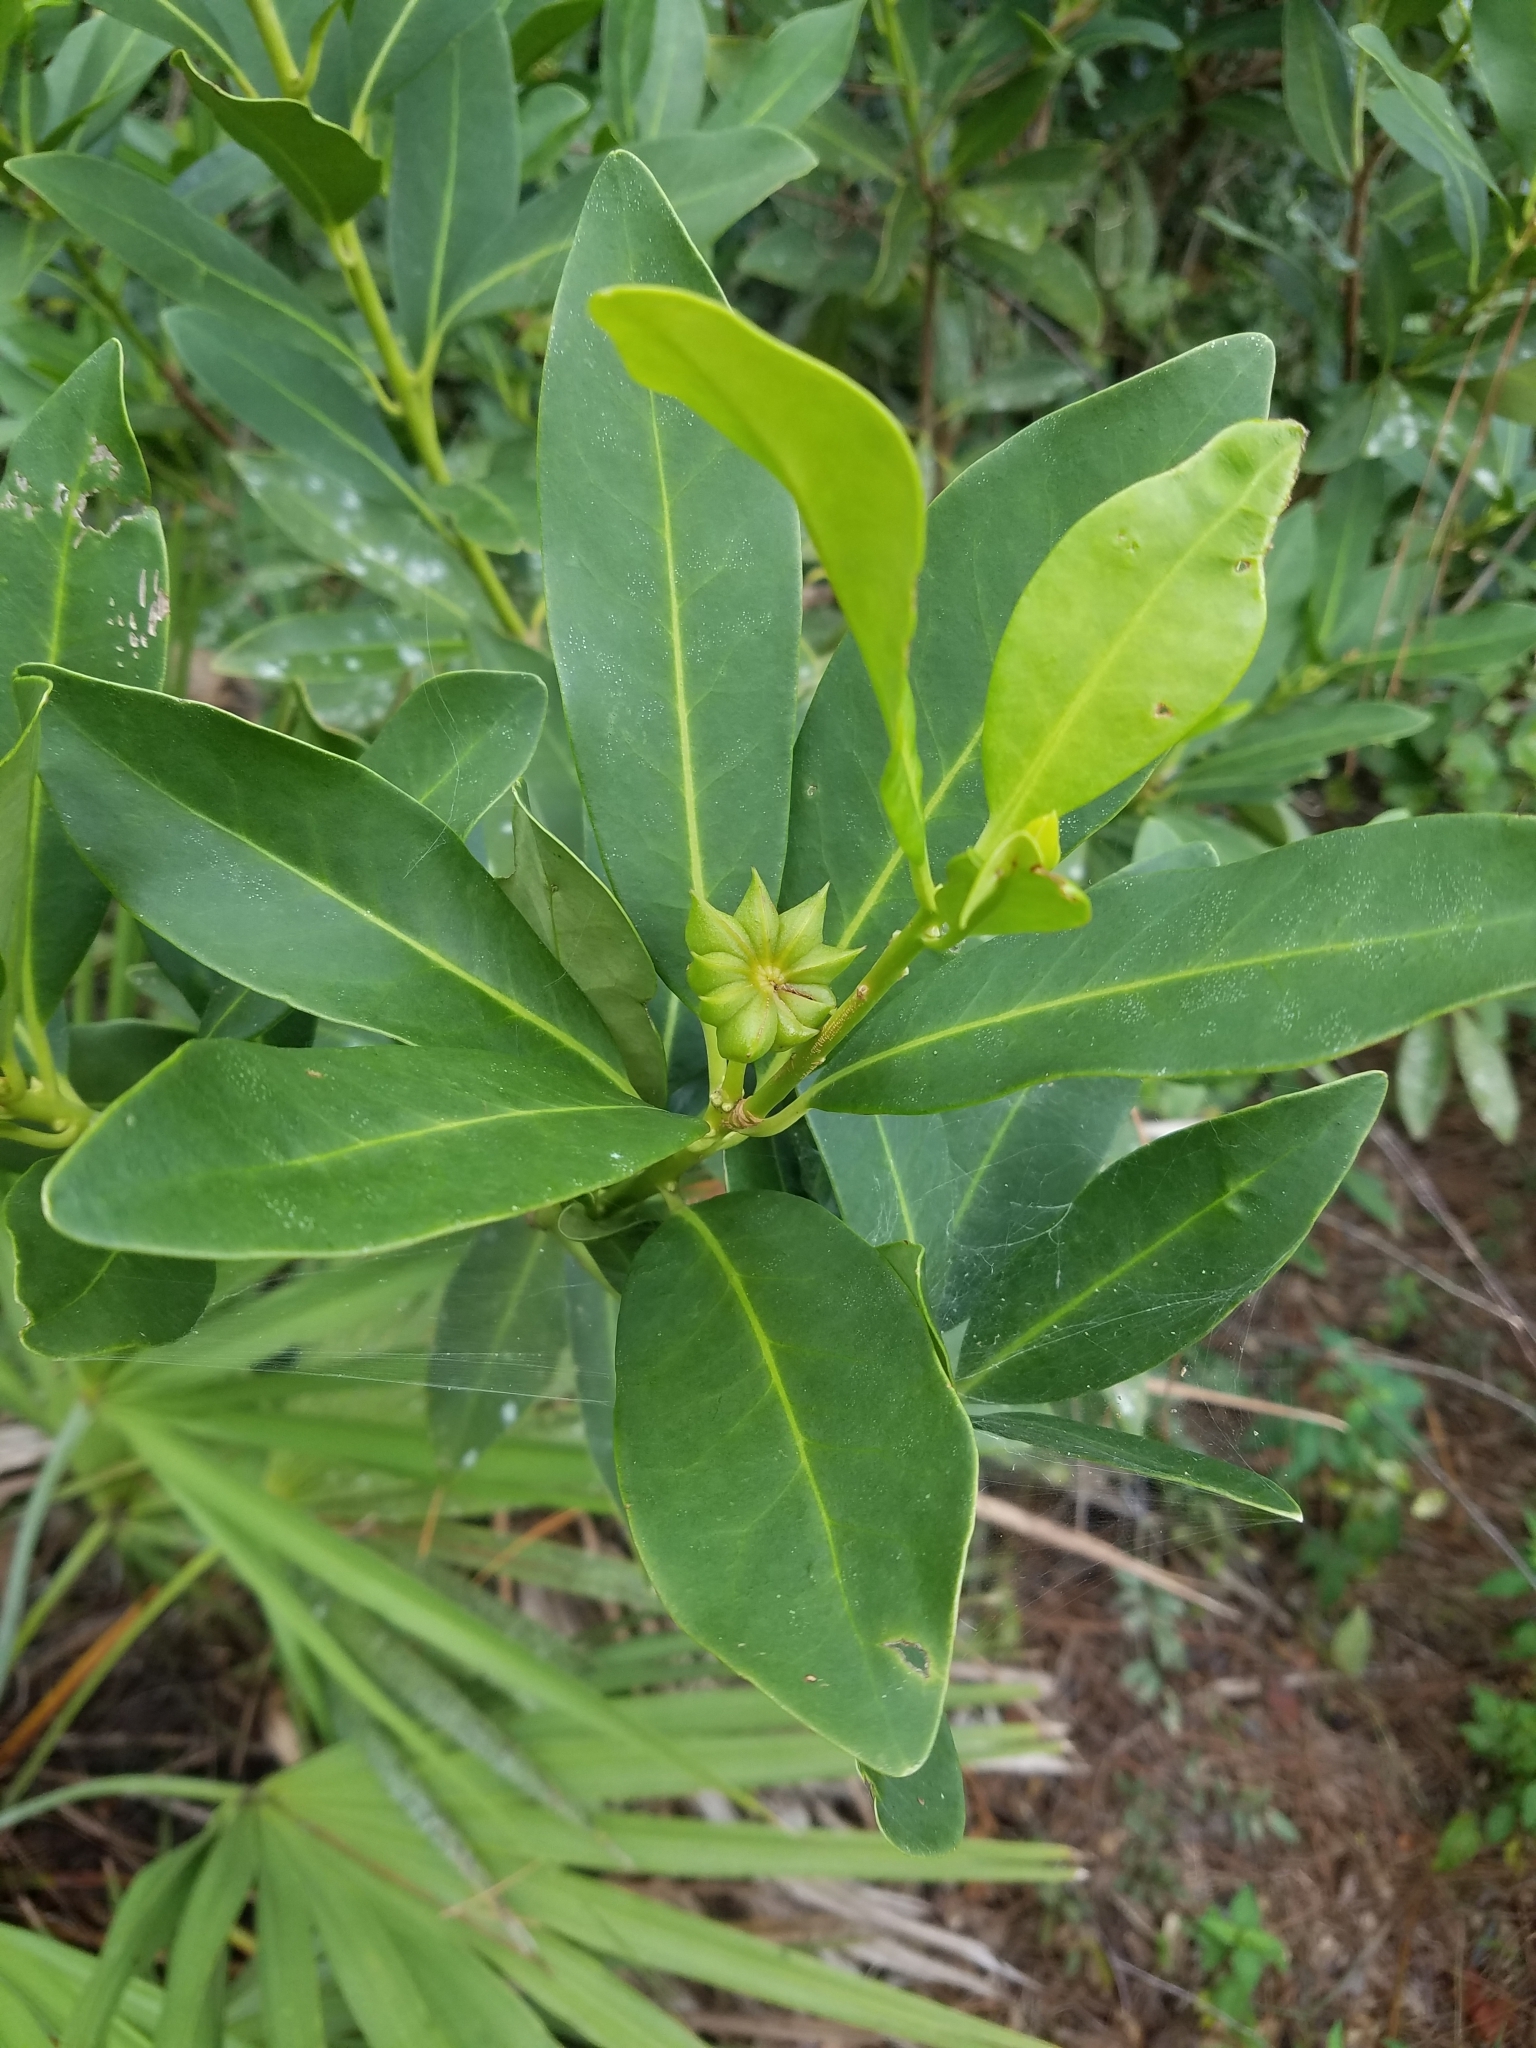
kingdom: Plantae
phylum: Tracheophyta
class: Magnoliopsida
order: Austrobaileyales
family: Schisandraceae
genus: Illicium
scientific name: Illicium parviflorum
